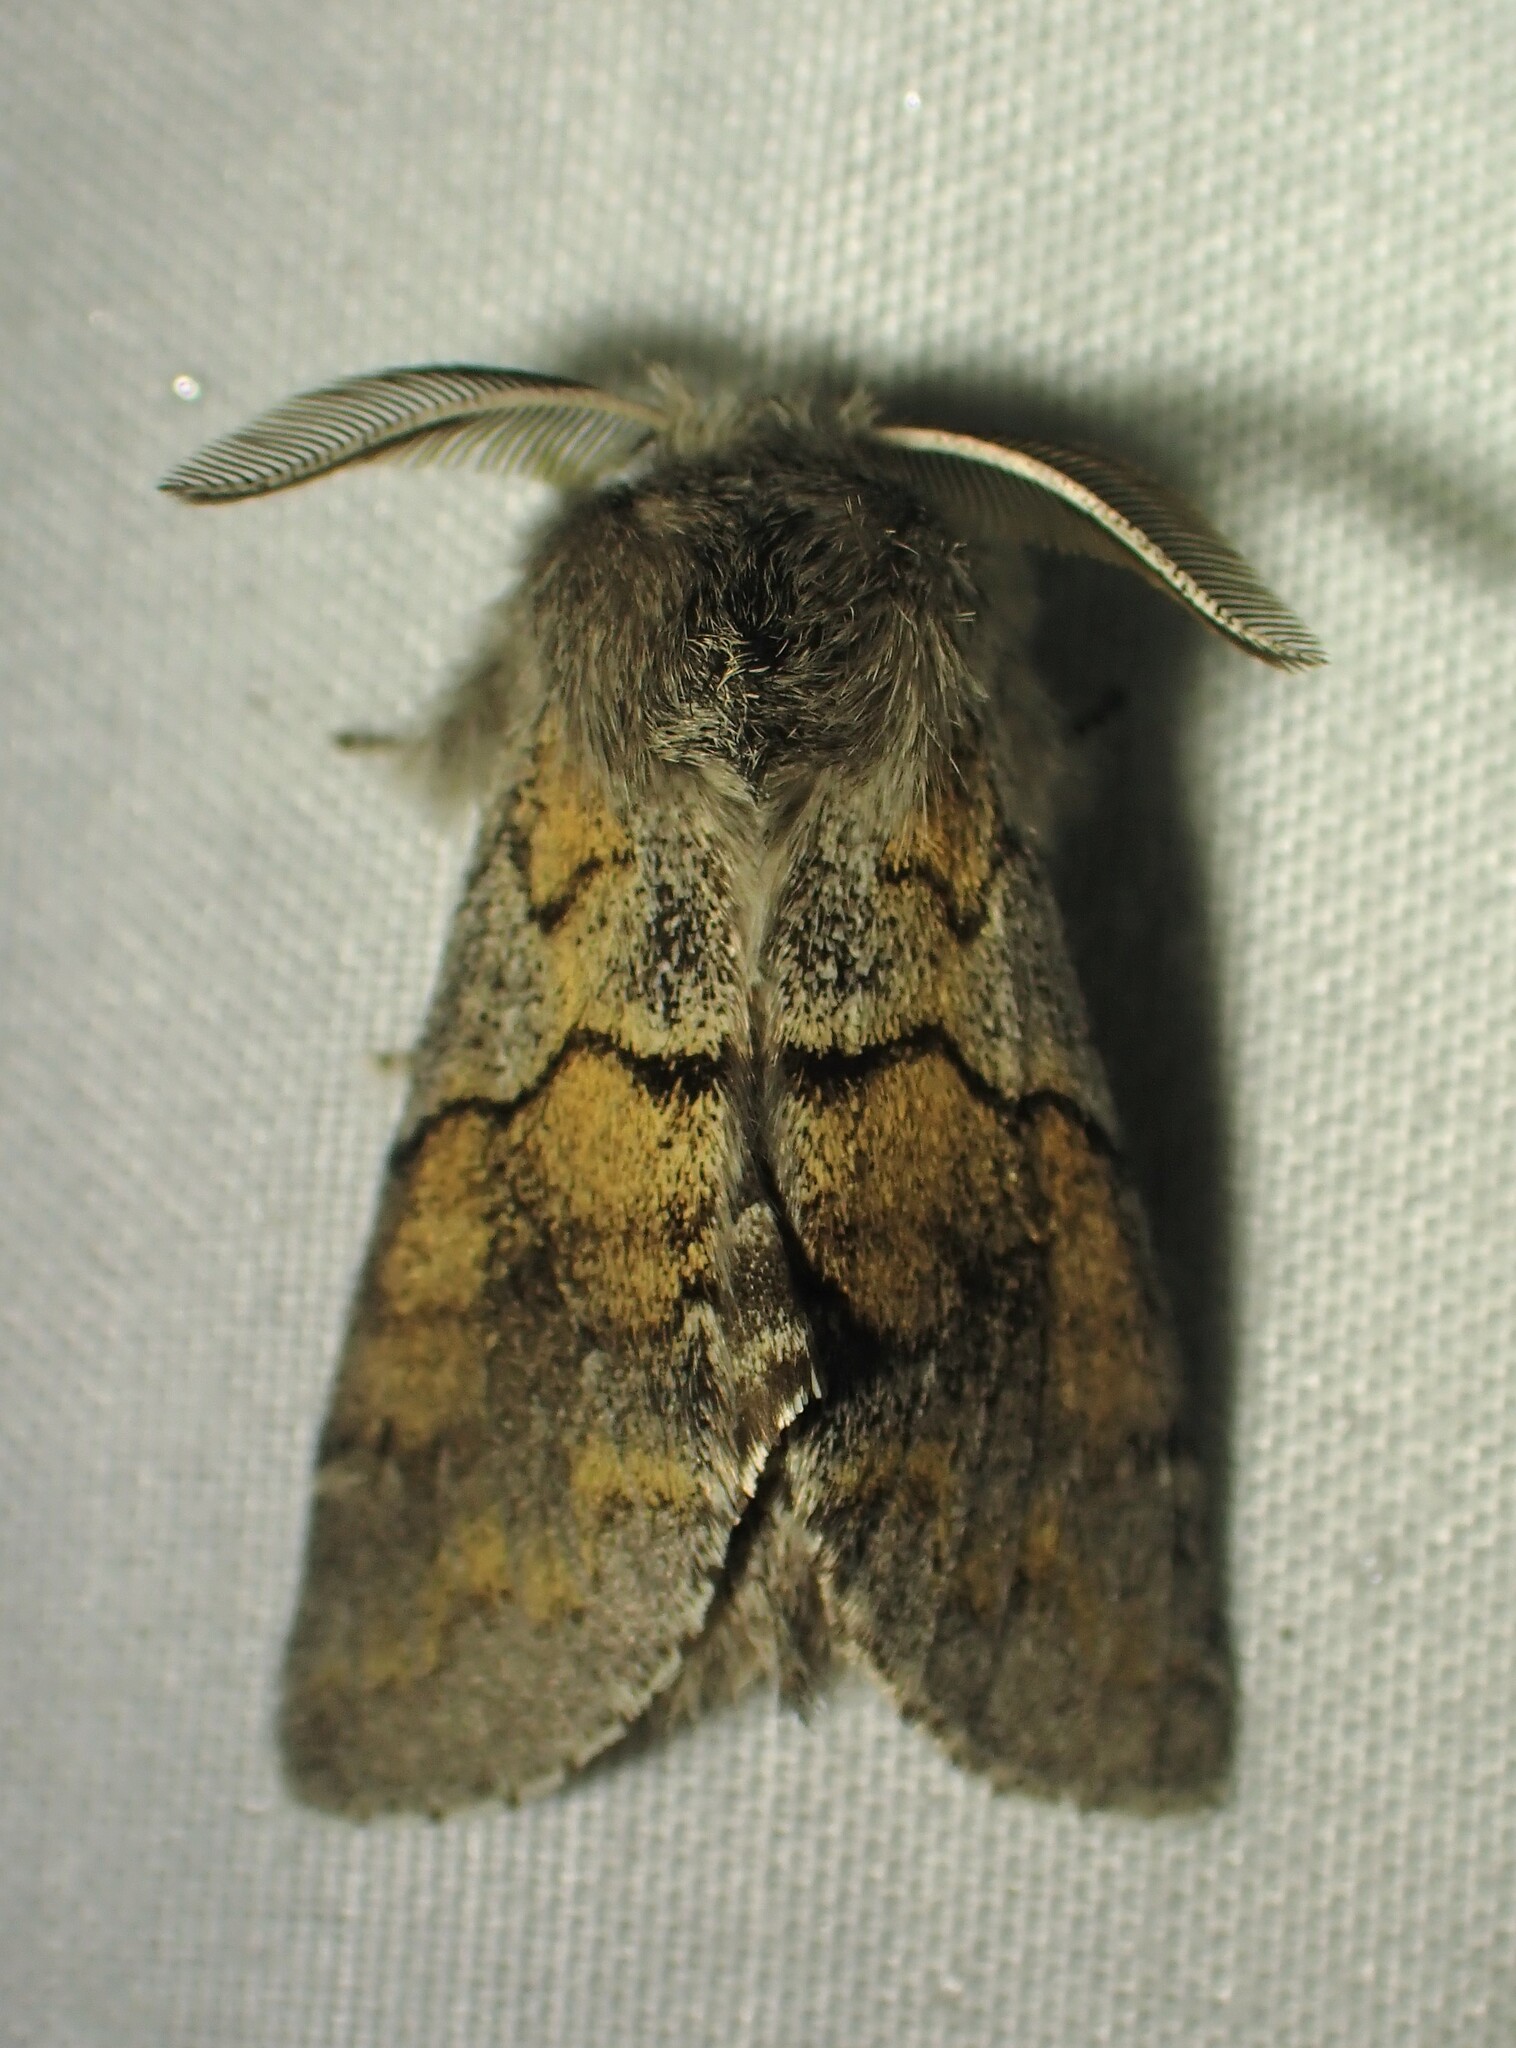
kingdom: Animalia
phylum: Arthropoda
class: Insecta
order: Lepidoptera
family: Notodontidae
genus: Gluphisia
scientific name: Gluphisia lintneri
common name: Lintner's gluphisia moth
